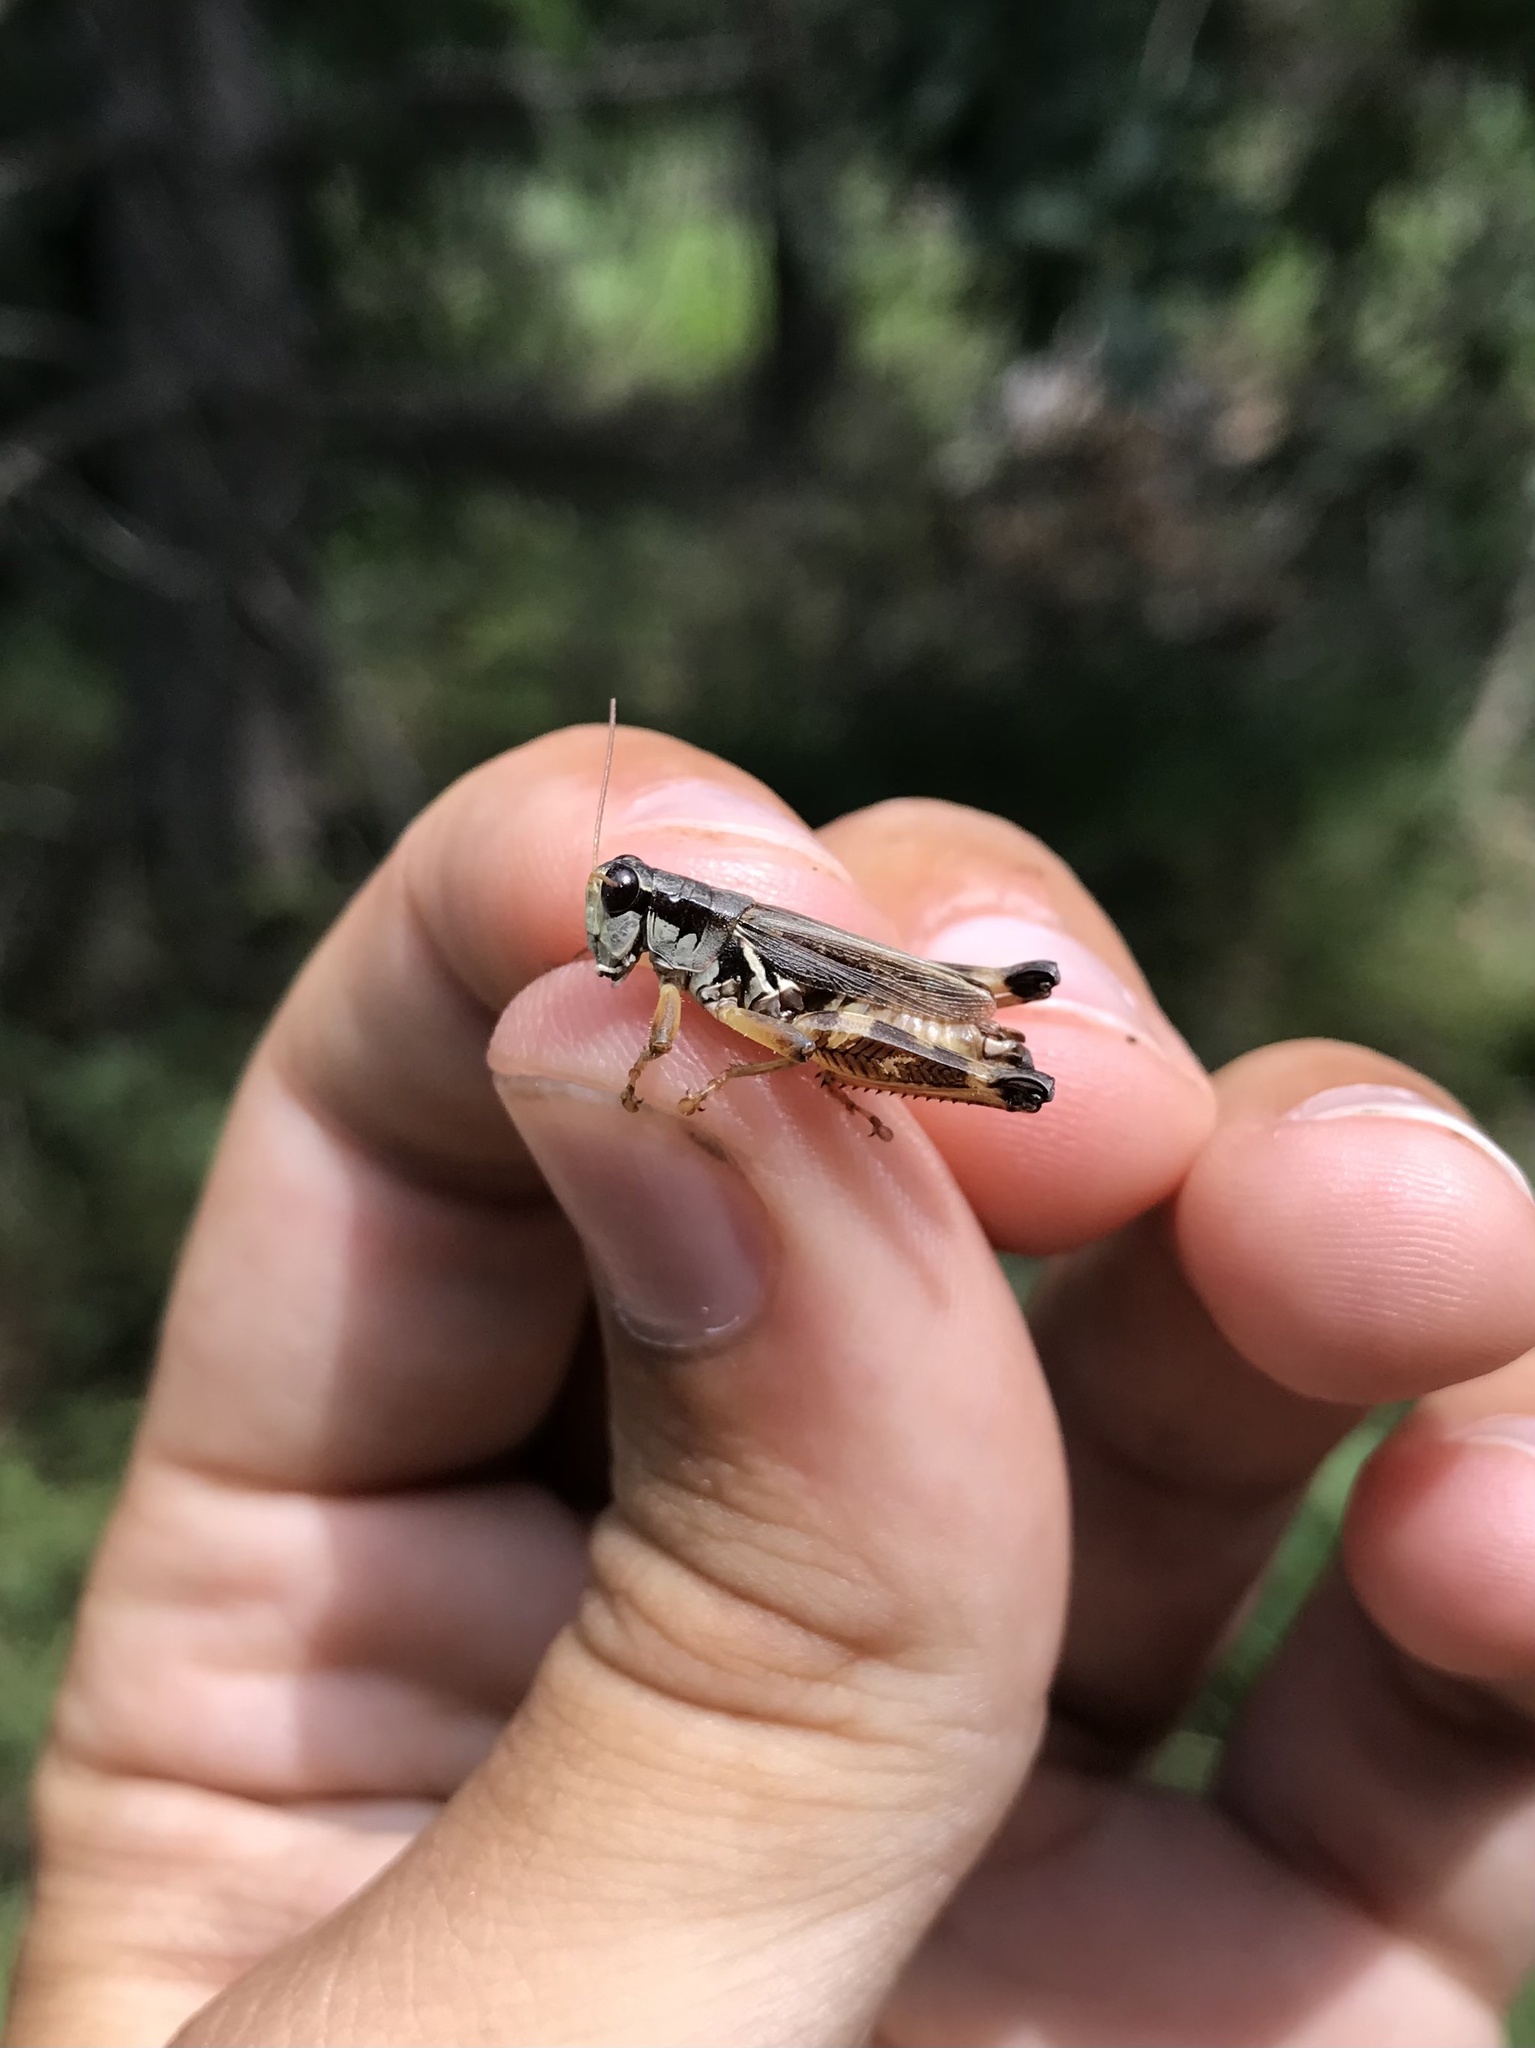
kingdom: Animalia
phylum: Arthropoda
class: Insecta
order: Orthoptera
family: Acrididae
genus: Melanoplus
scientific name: Melanoplus fasciatus
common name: Huckleberry locust
